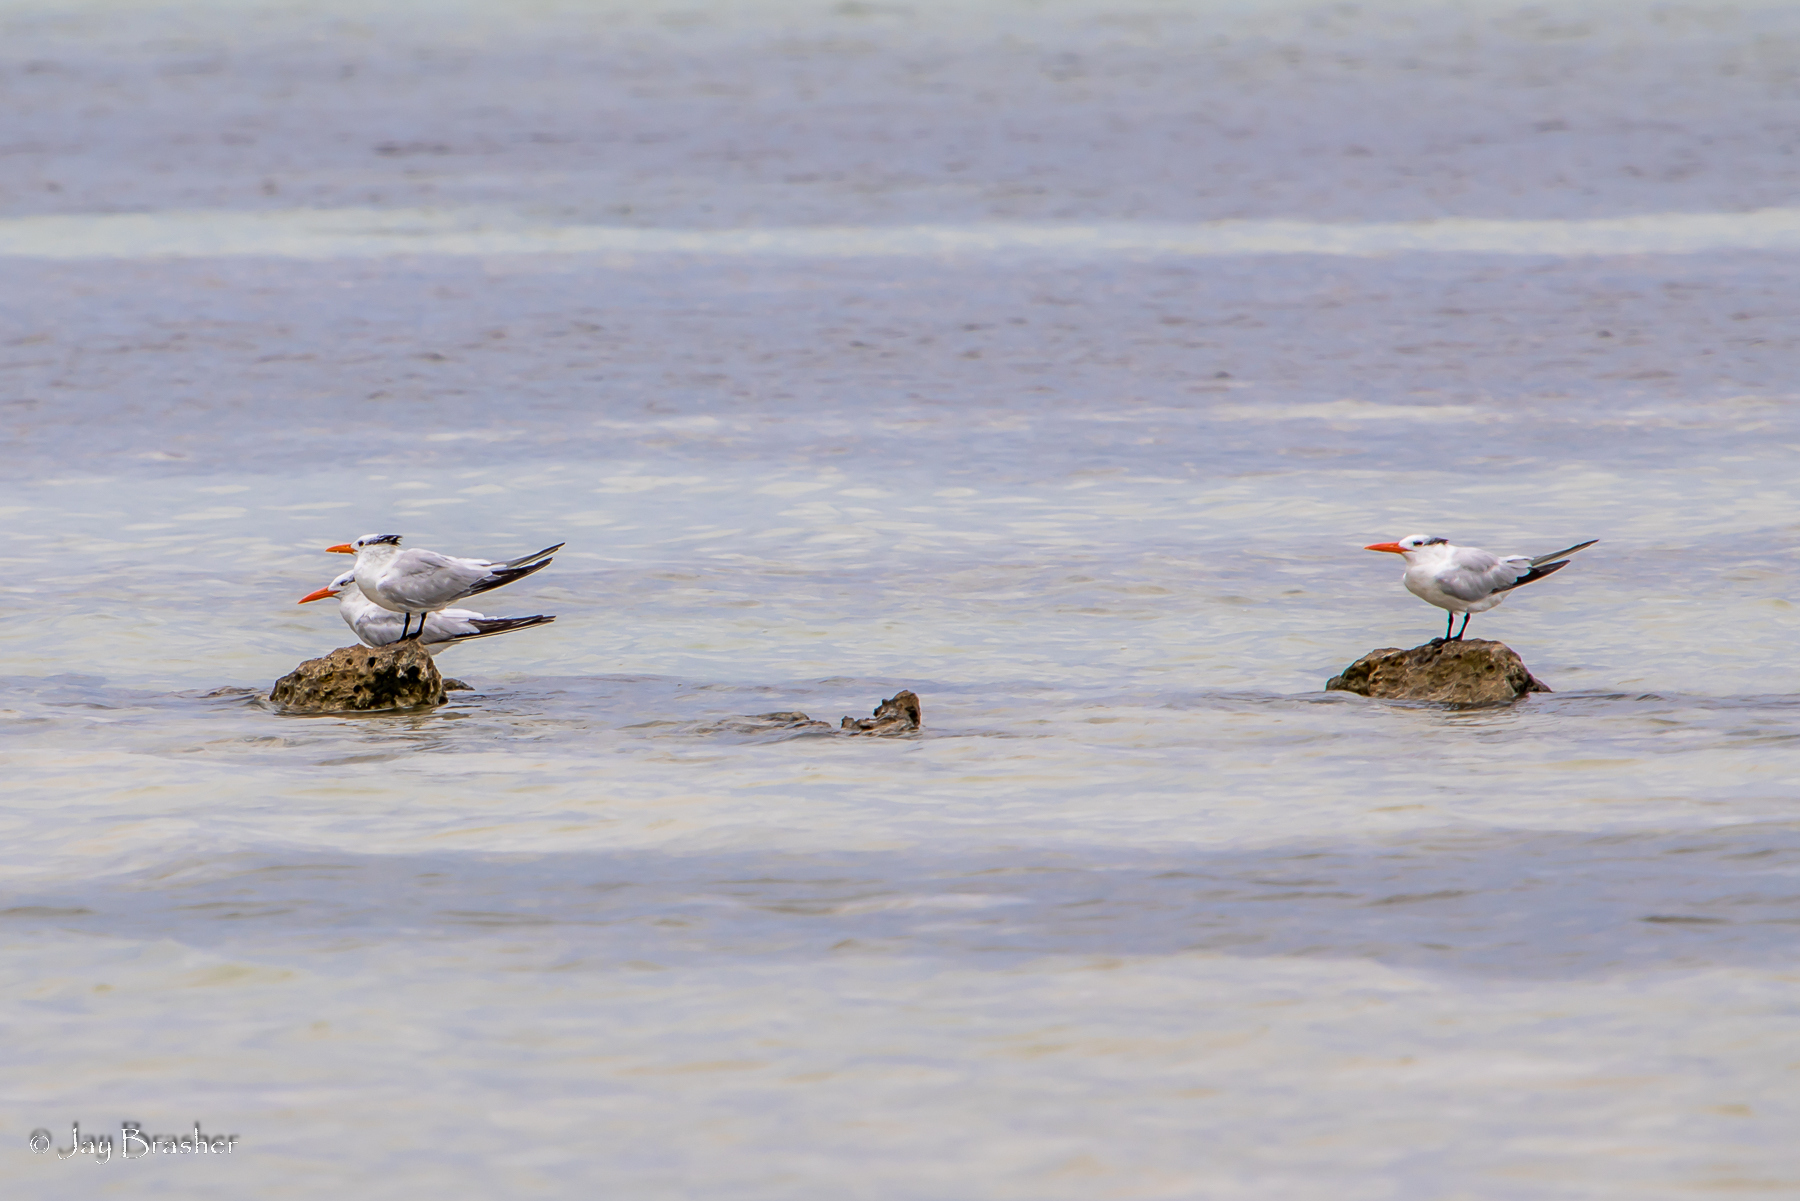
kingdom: Animalia
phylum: Chordata
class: Aves
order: Charadriiformes
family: Laridae
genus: Thalasseus
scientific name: Thalasseus maximus
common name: Royal tern
